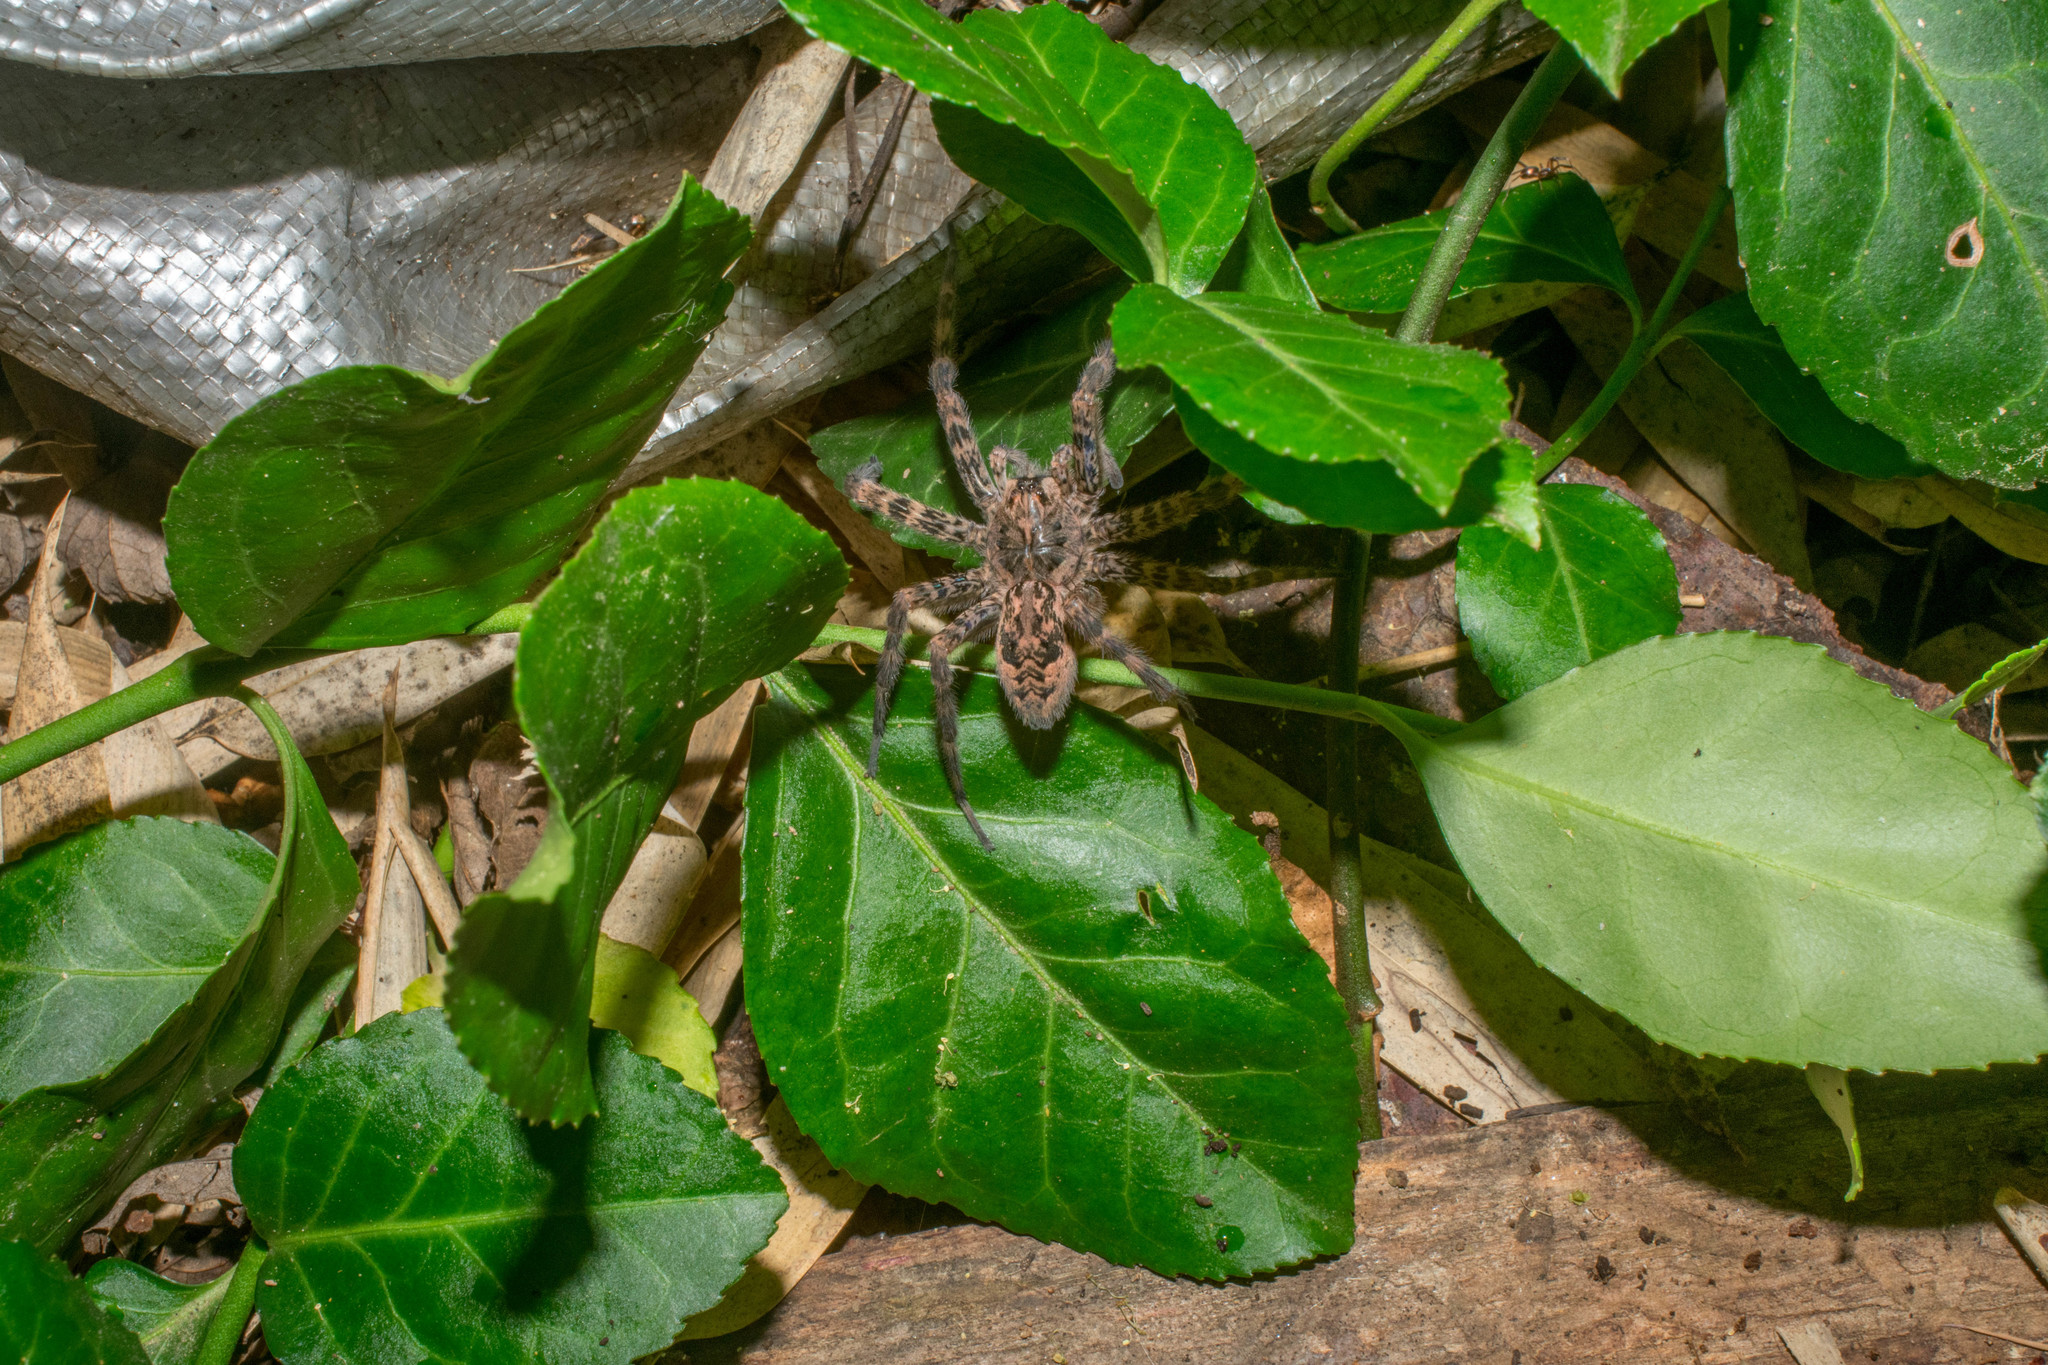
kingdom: Animalia
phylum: Arthropoda
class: Arachnida
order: Araneae
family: Pisauridae
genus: Dolomedes
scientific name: Dolomedes tenebrosus
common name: Dark fishing spider
